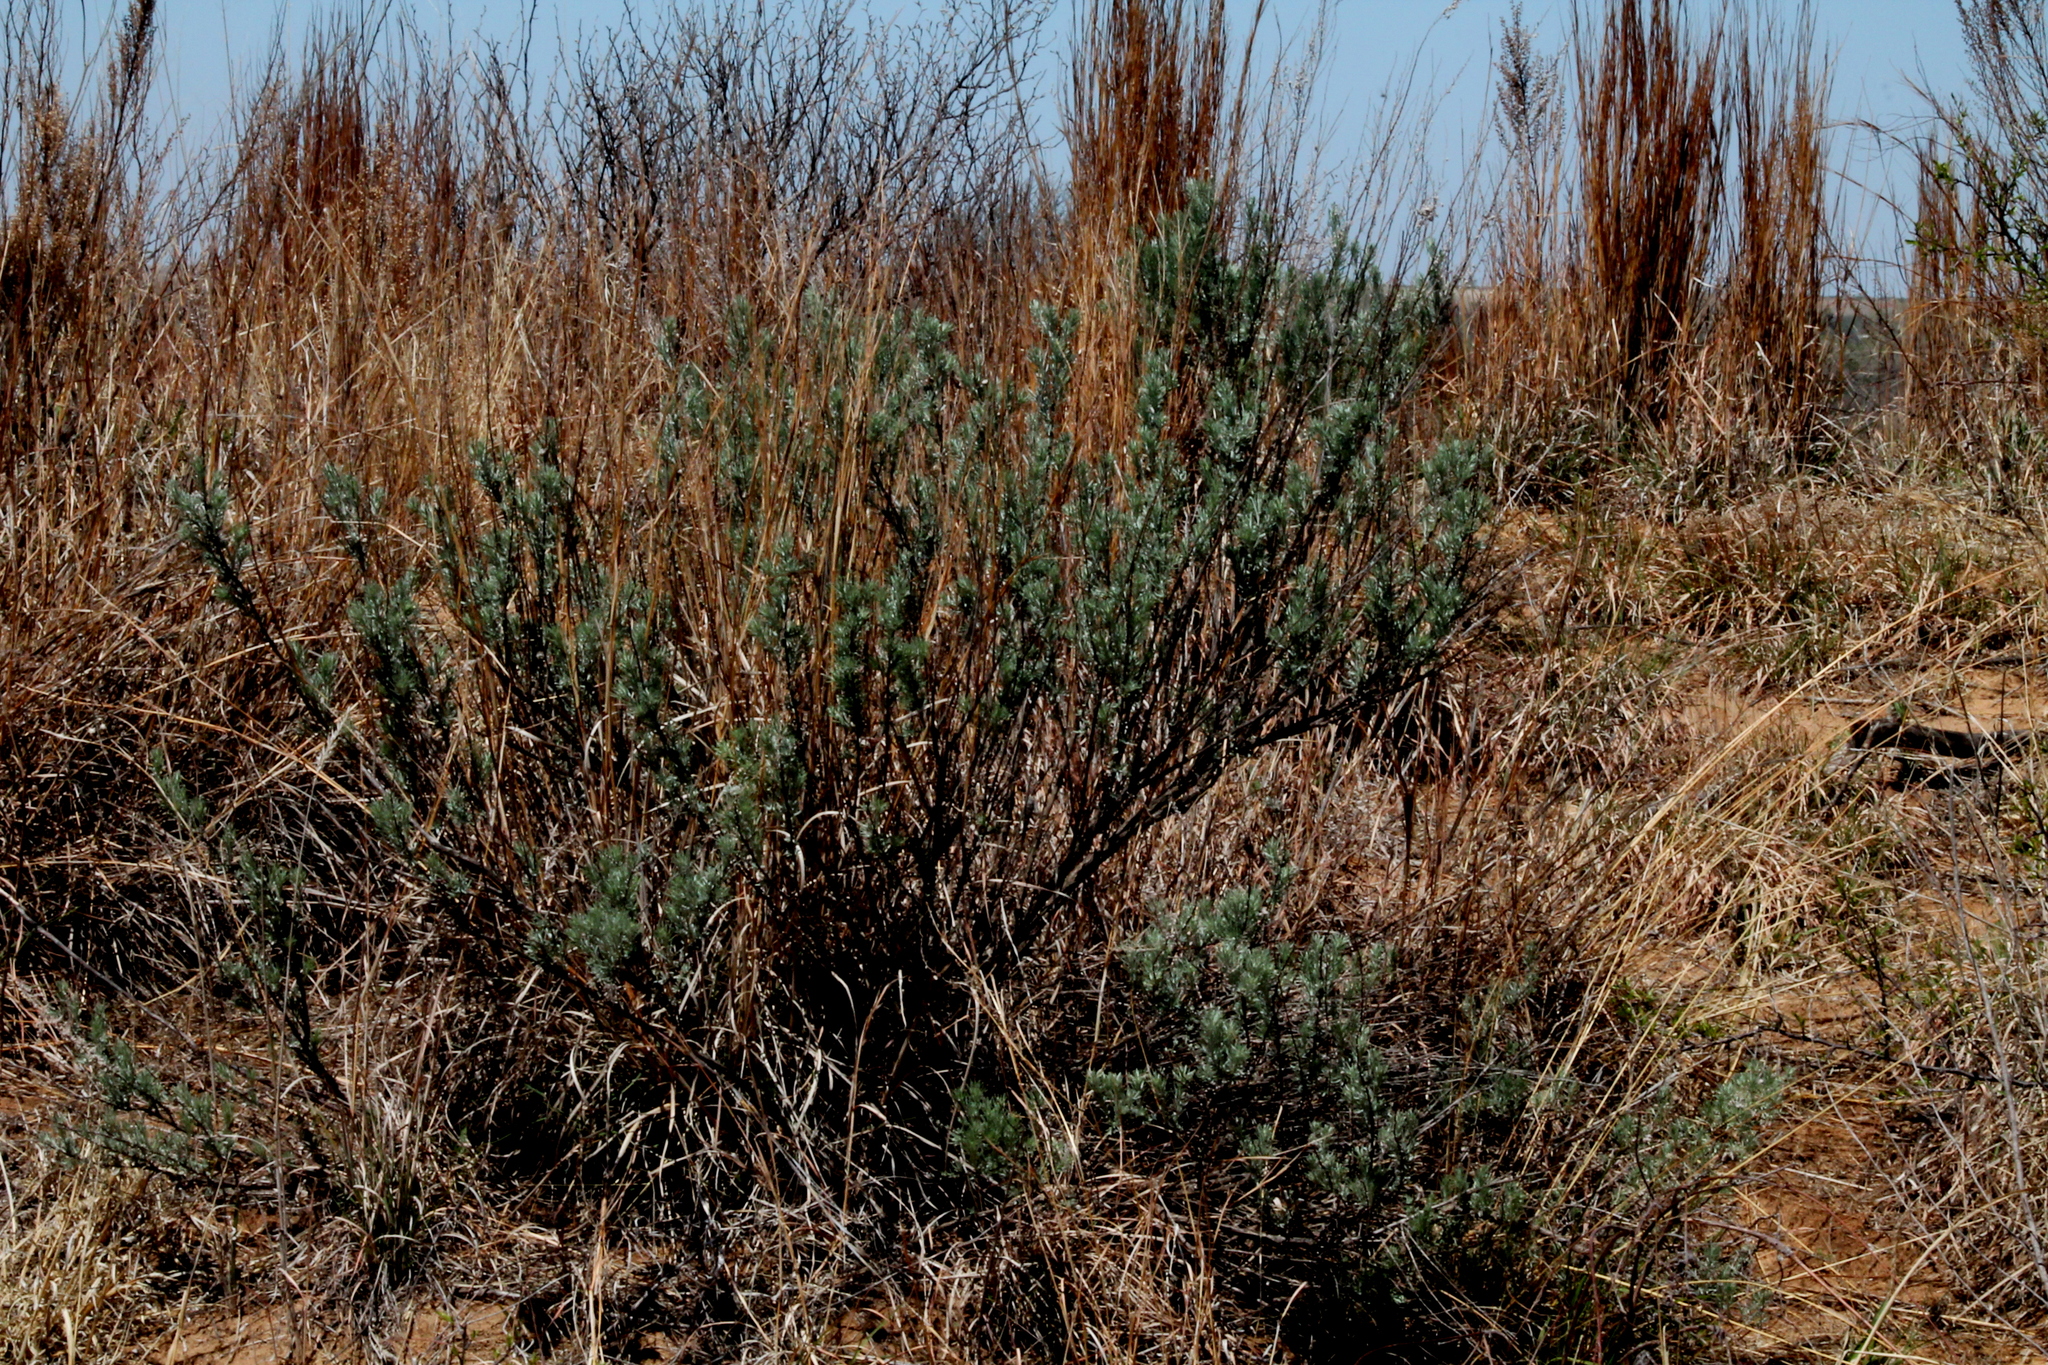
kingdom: Plantae
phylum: Tracheophyta
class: Magnoliopsida
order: Asterales
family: Asteraceae
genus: Artemisia
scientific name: Artemisia filifolia
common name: Sand-sage
